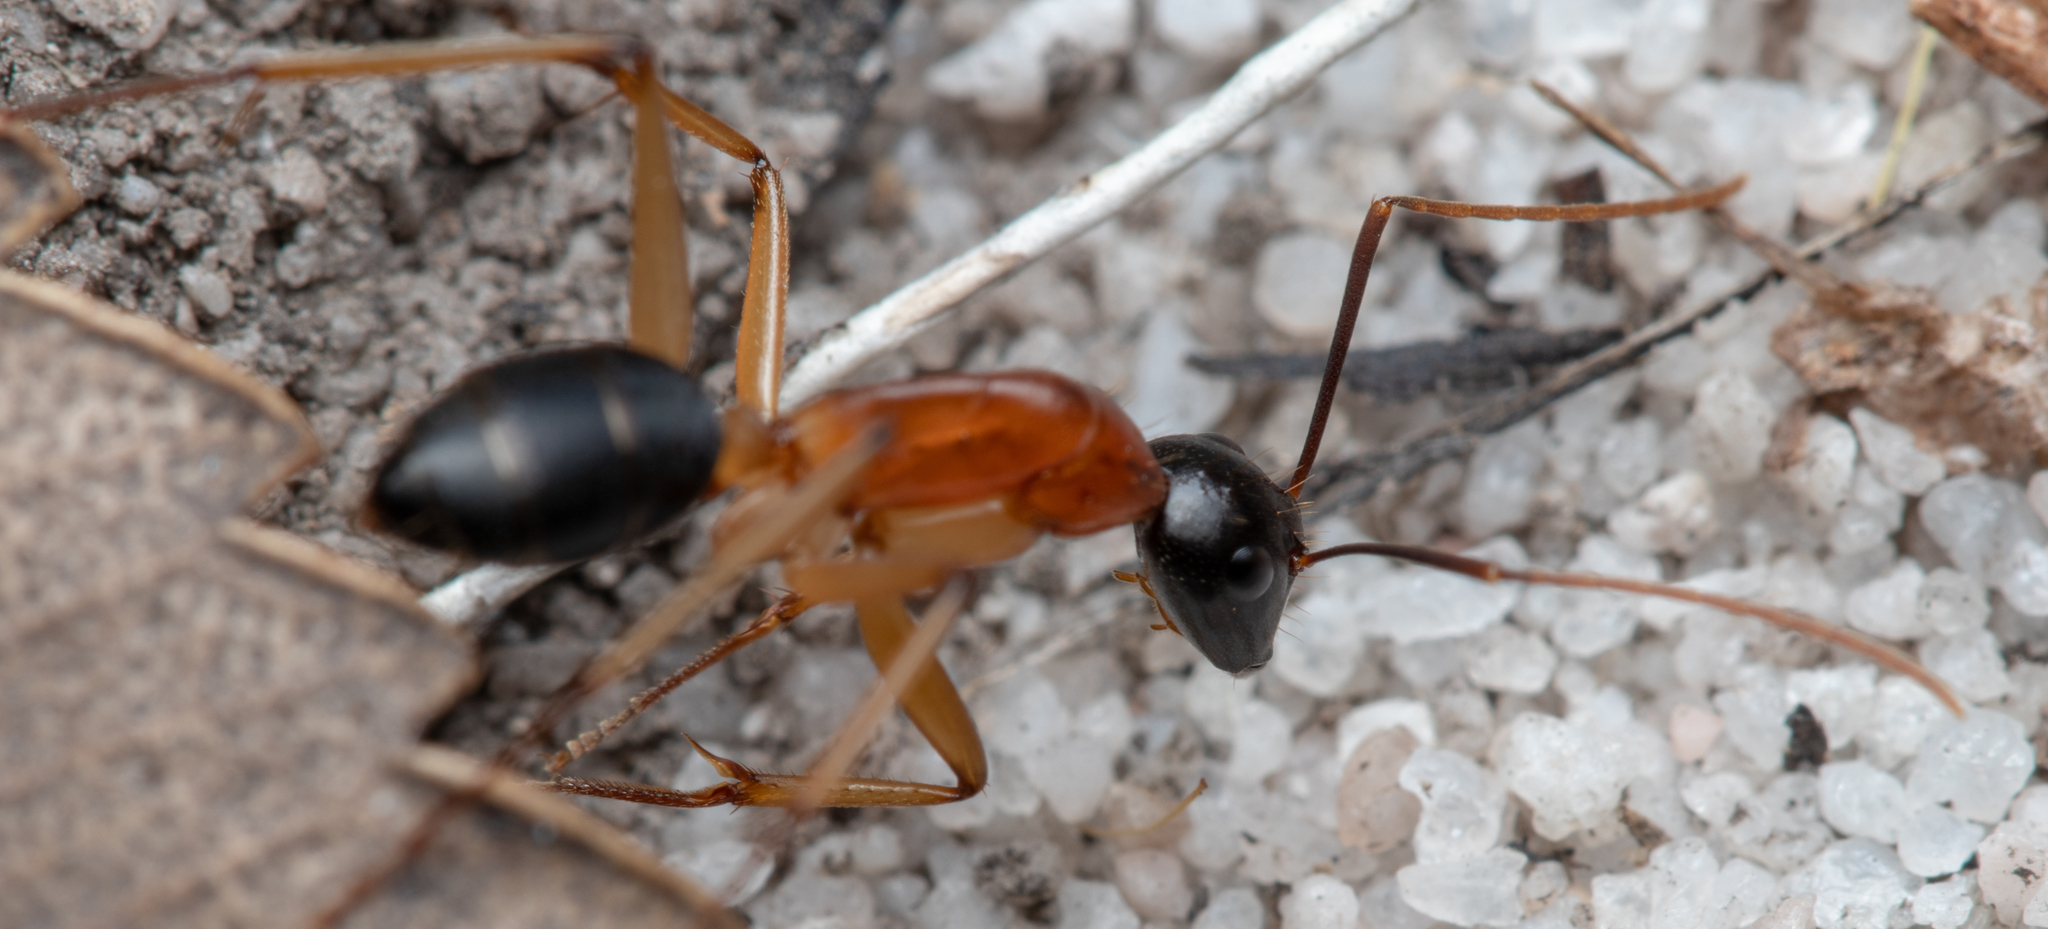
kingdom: Animalia
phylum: Arthropoda
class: Insecta
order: Hymenoptera
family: Formicidae
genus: Camponotus
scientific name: Camponotus nigriceps
